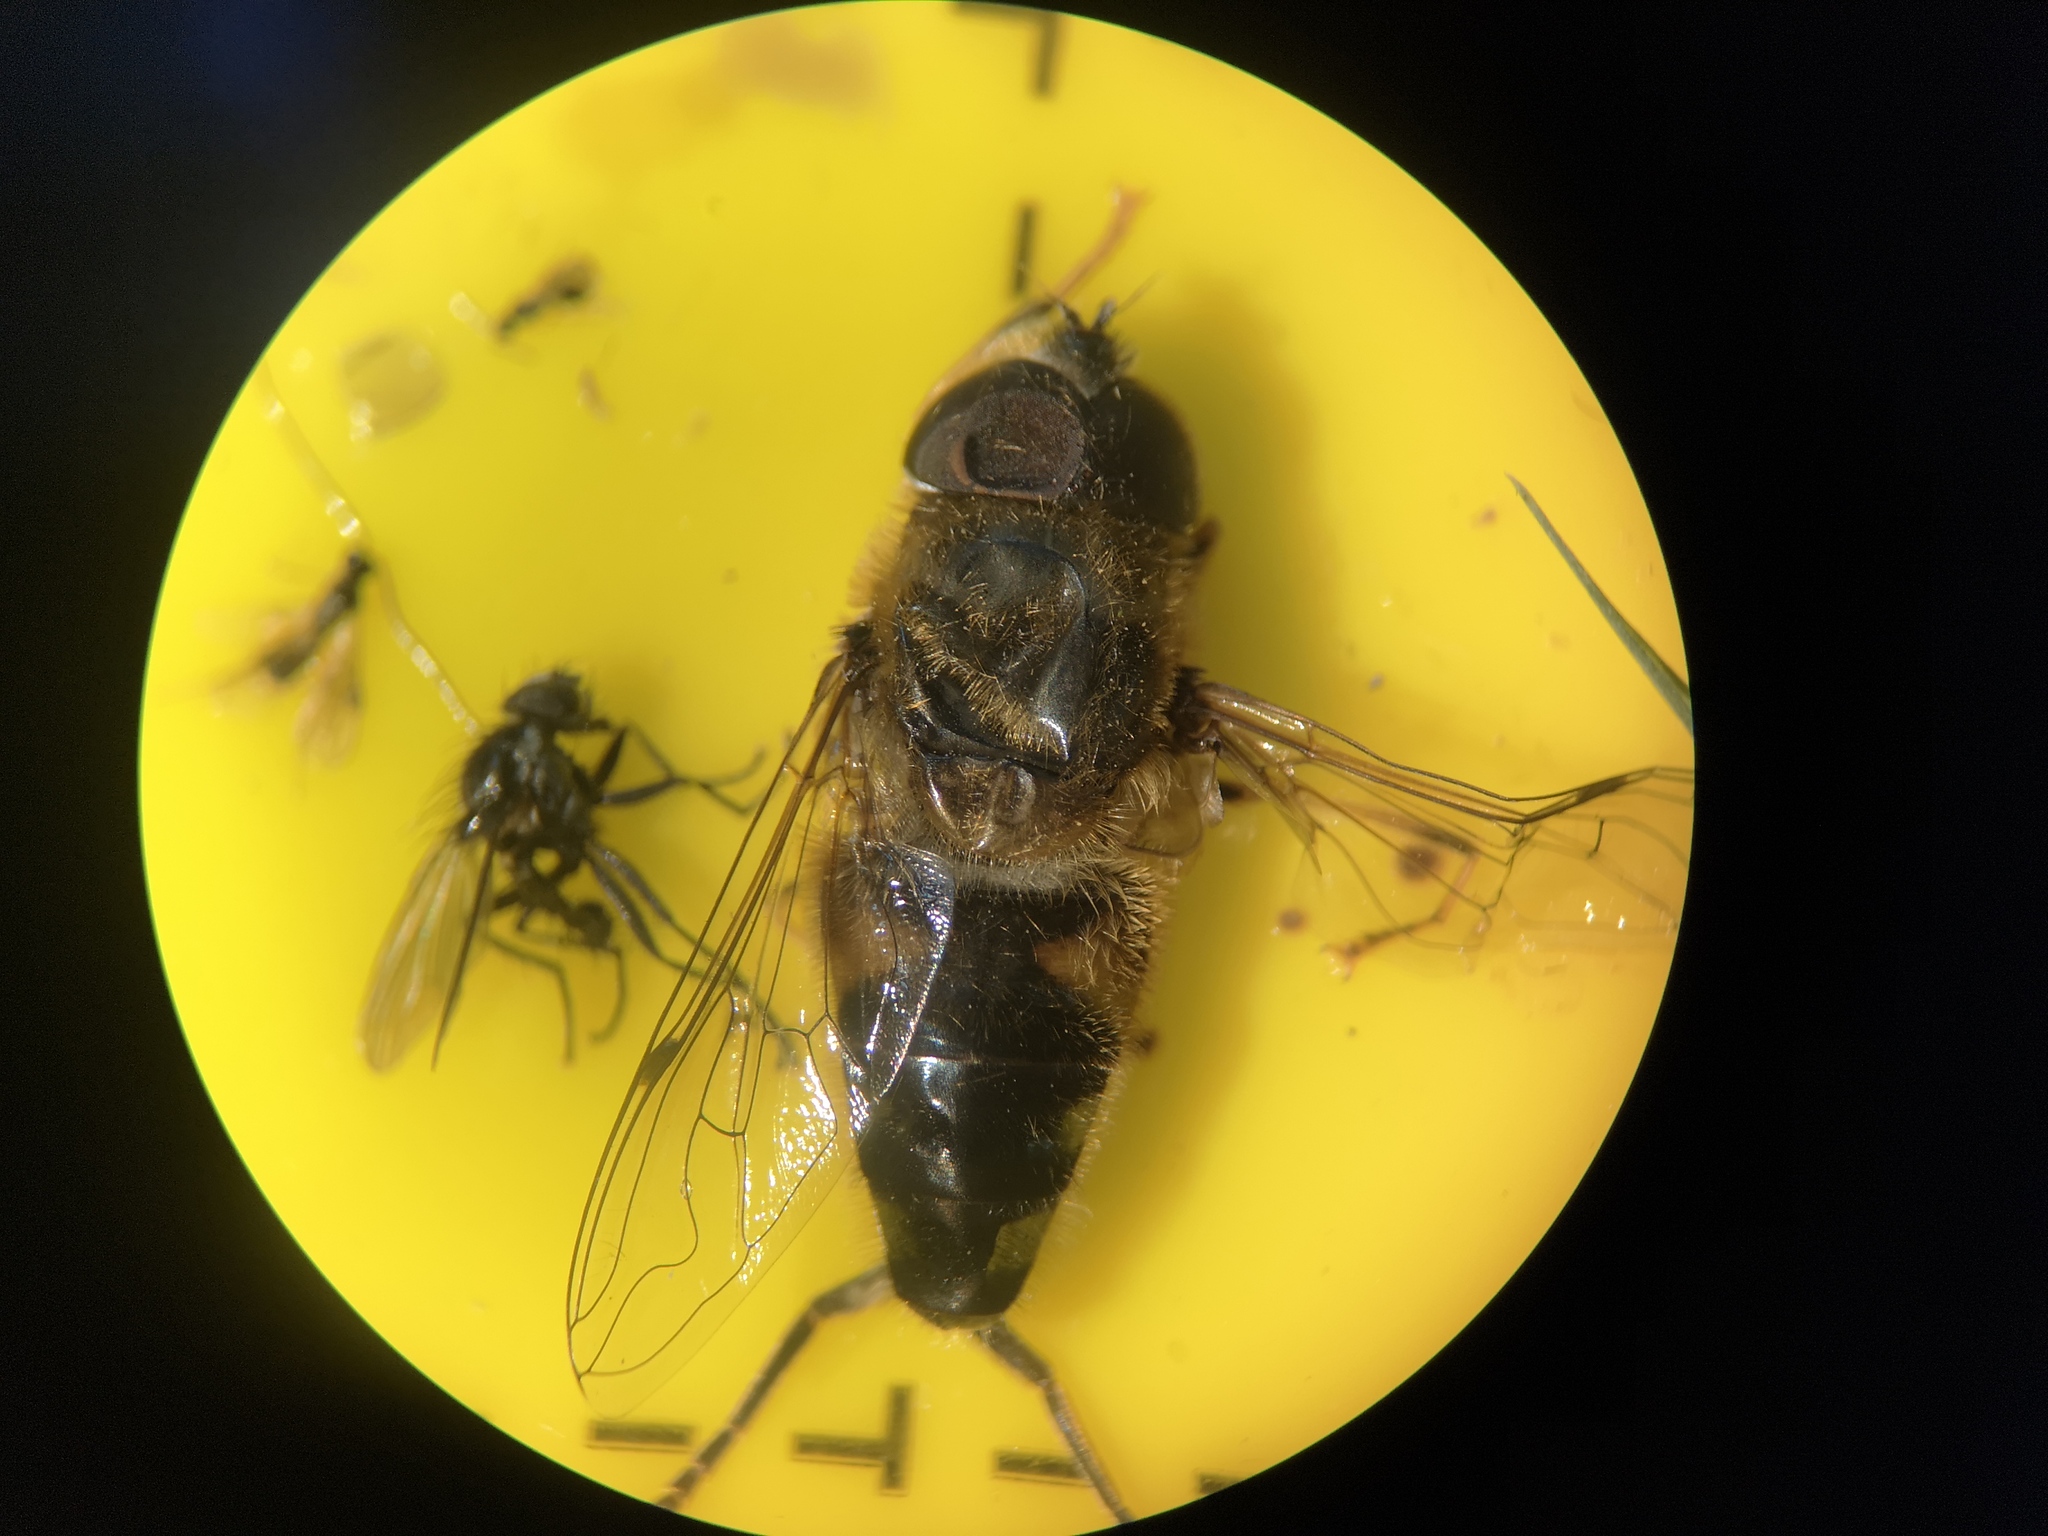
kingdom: Animalia
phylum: Arthropoda
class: Insecta
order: Diptera
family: Syrphidae
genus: Eristalis
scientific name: Eristalis pertinax
